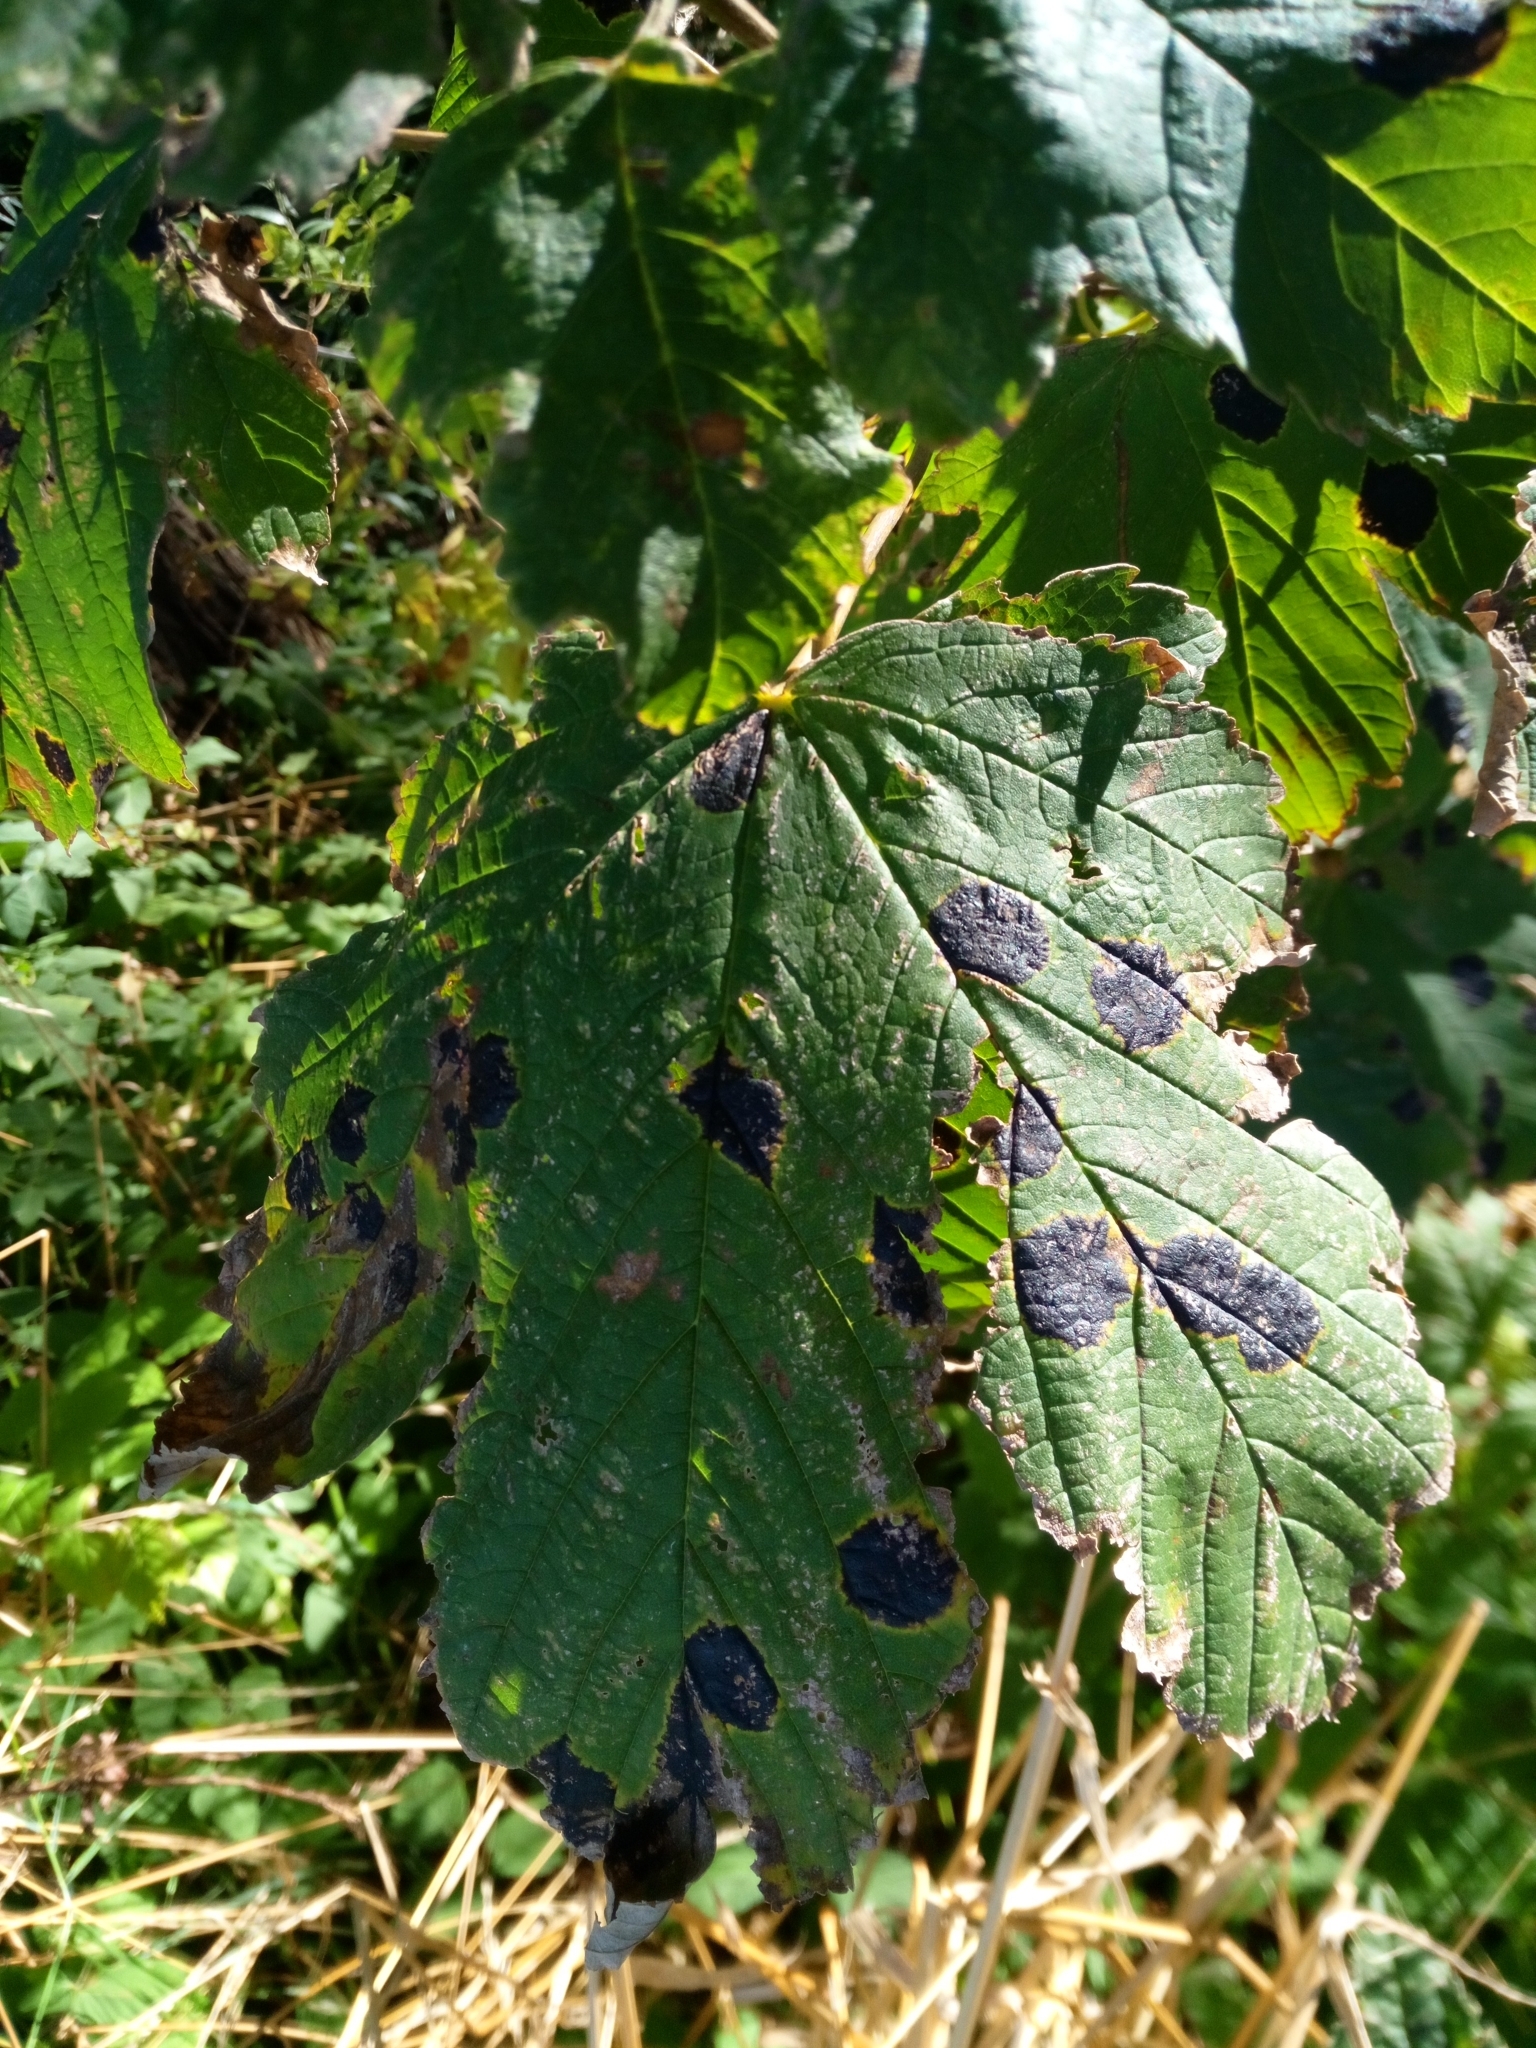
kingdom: Fungi
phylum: Ascomycota
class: Leotiomycetes
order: Rhytismatales
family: Rhytismataceae
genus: Rhytisma
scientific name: Rhytisma acerinum
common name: European tar spot
